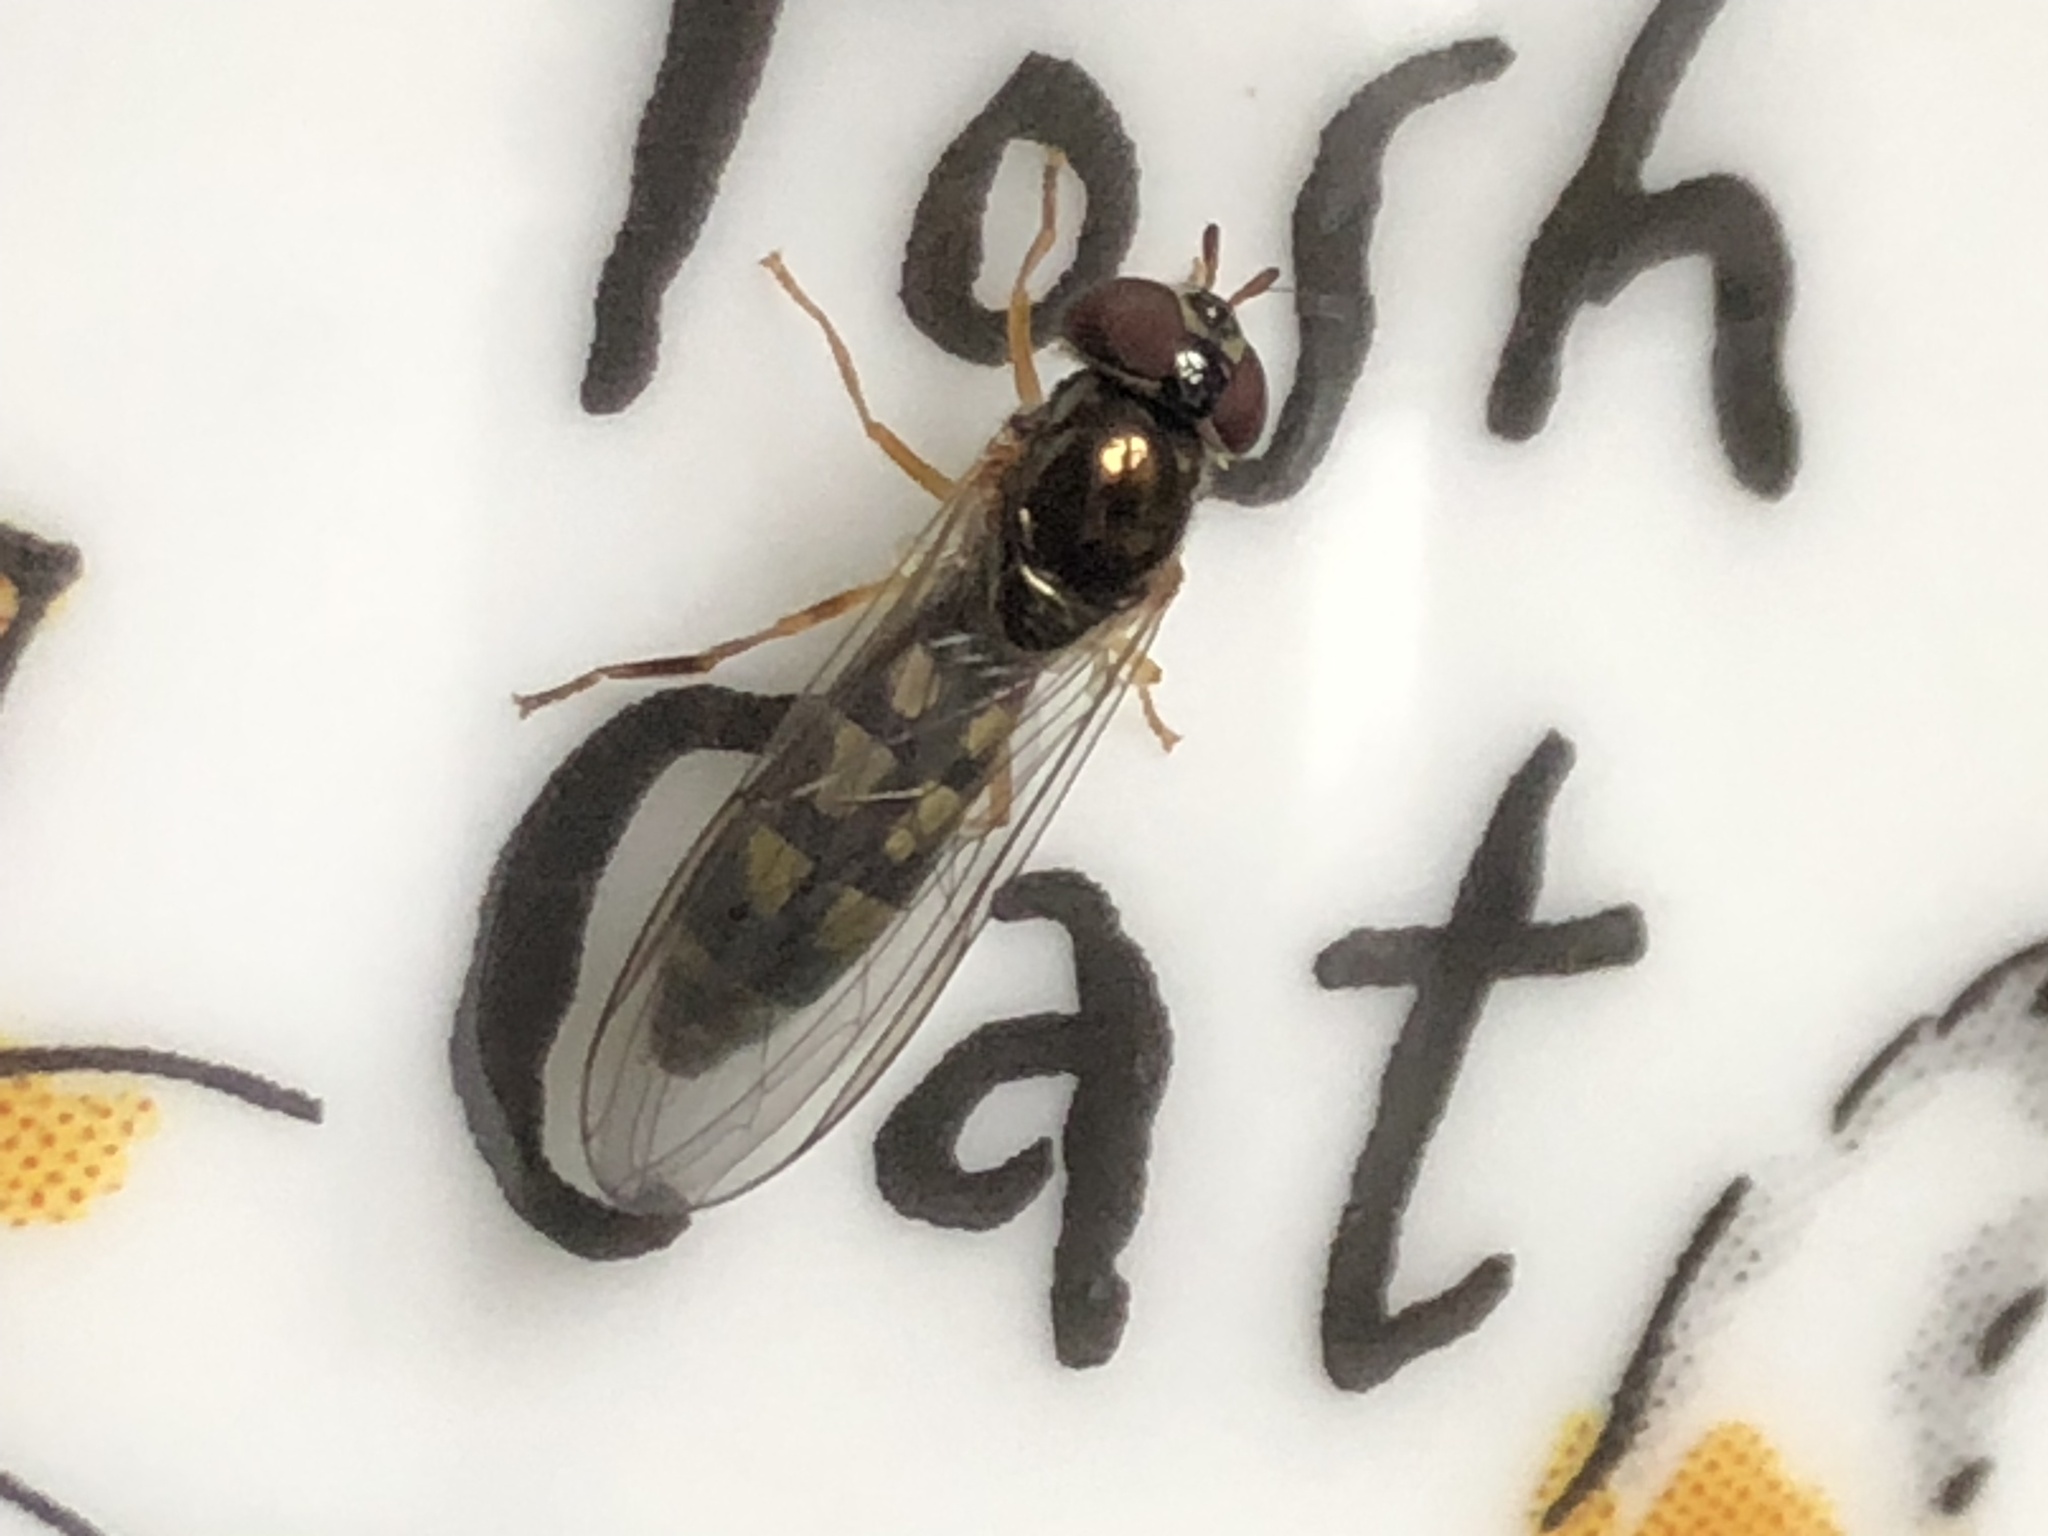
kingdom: Animalia
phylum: Arthropoda
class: Insecta
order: Diptera
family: Syrphidae
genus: Melanostoma
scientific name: Melanostoma scalare
